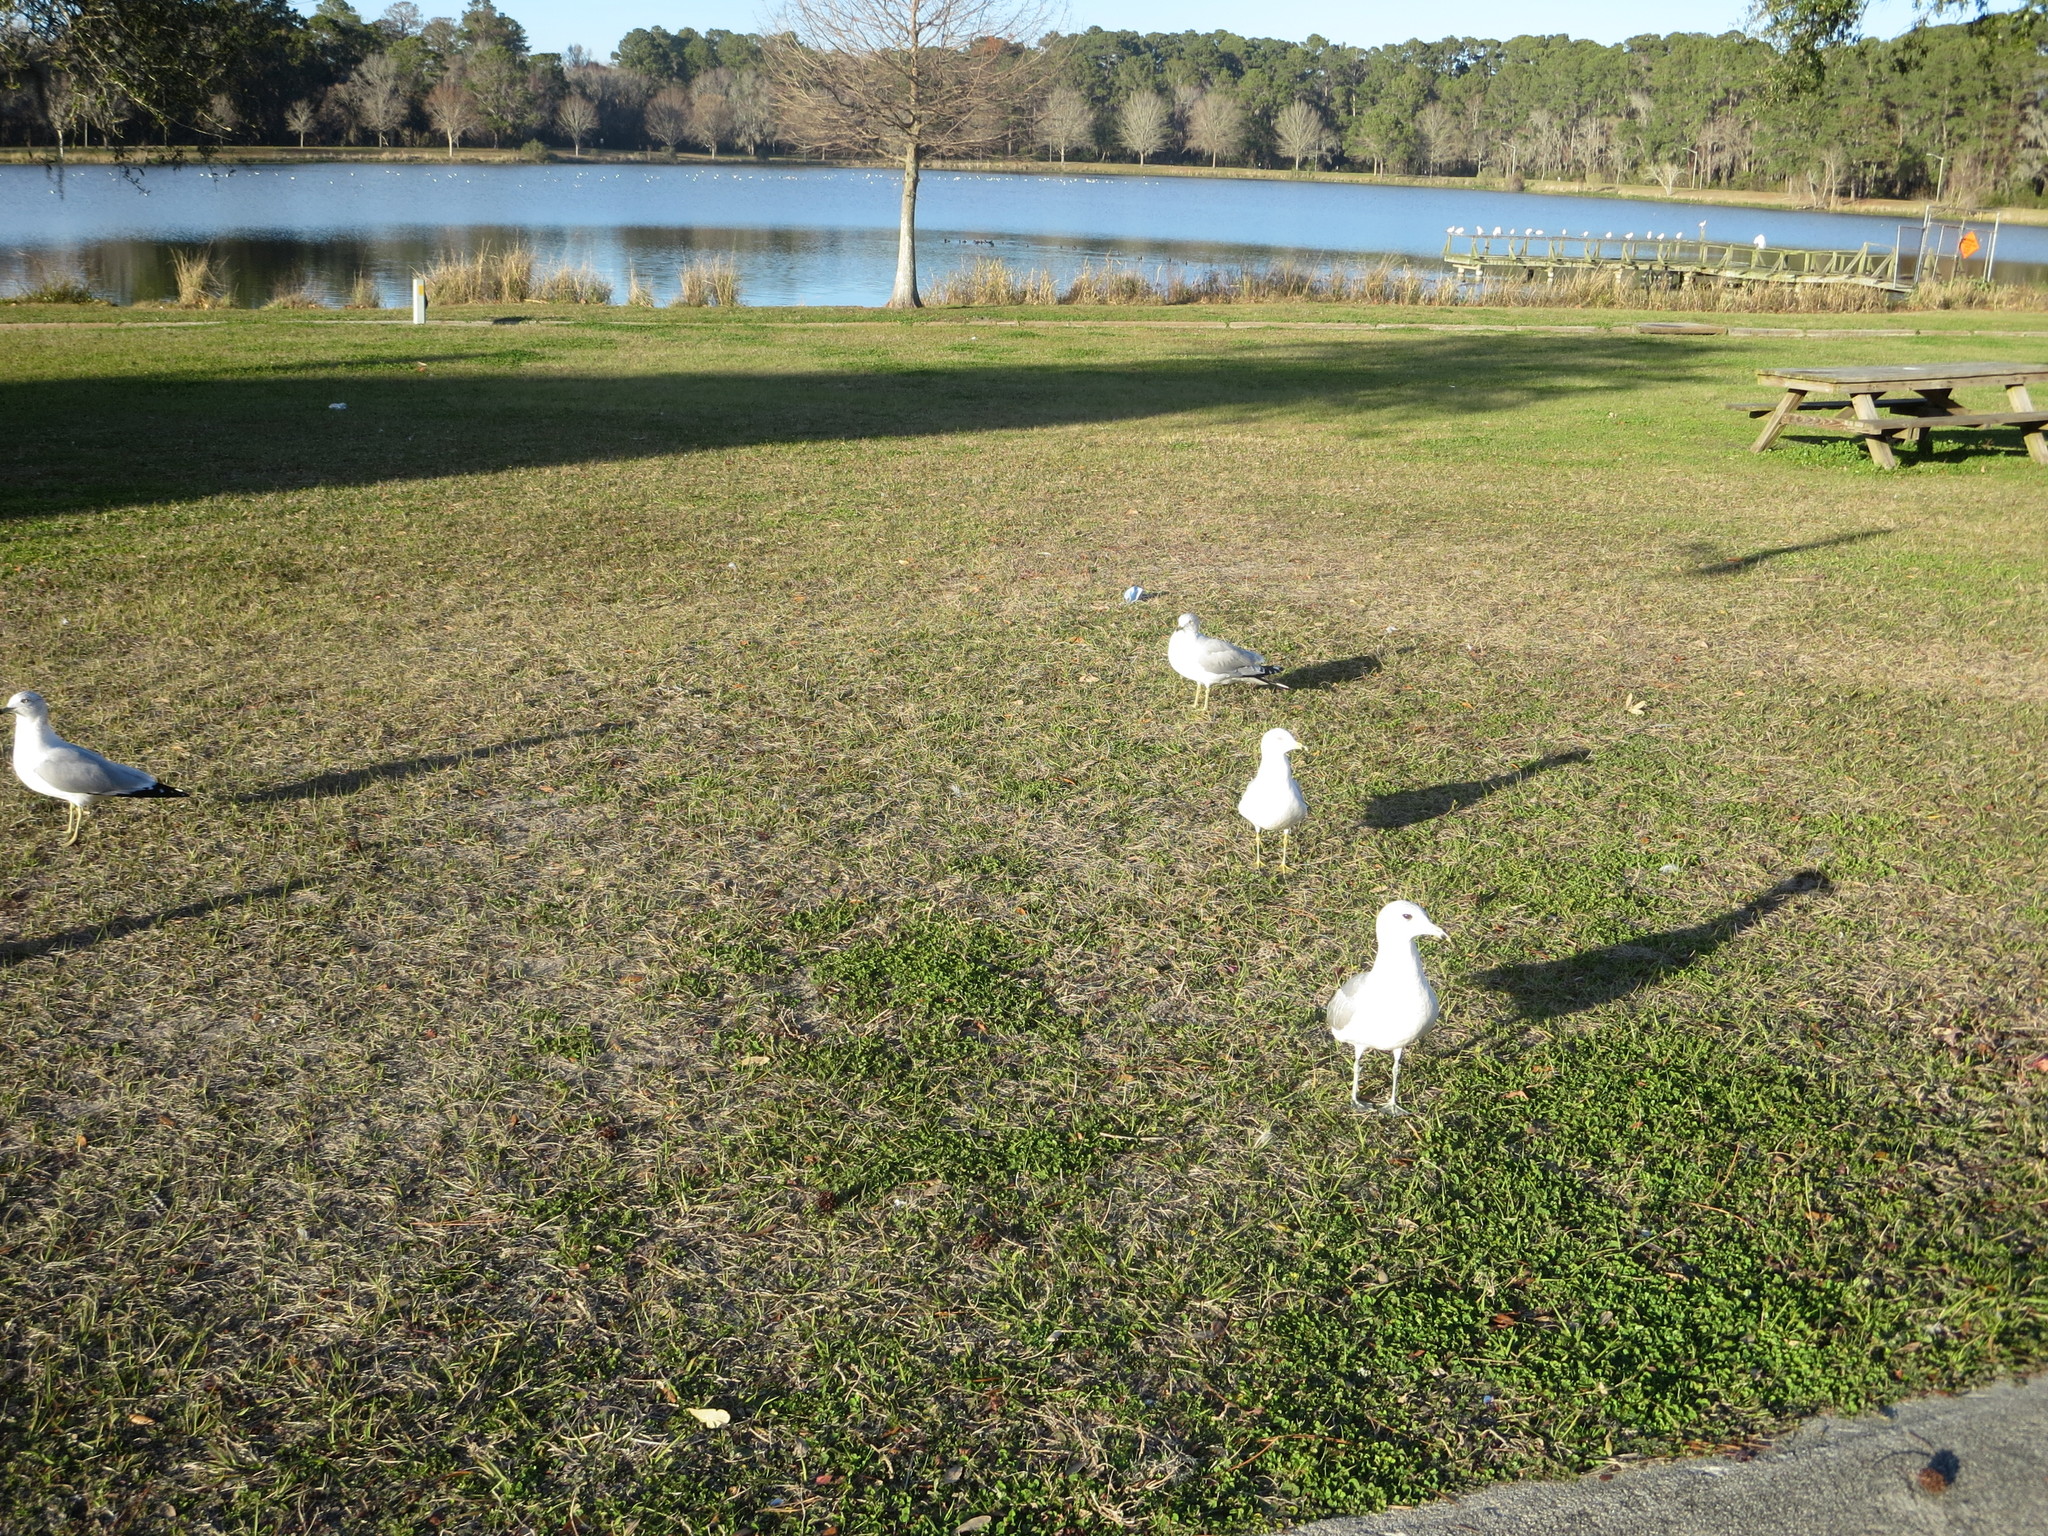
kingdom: Animalia
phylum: Chordata
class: Aves
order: Charadriiformes
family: Laridae
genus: Larus
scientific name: Larus delawarensis
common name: Ring-billed gull
